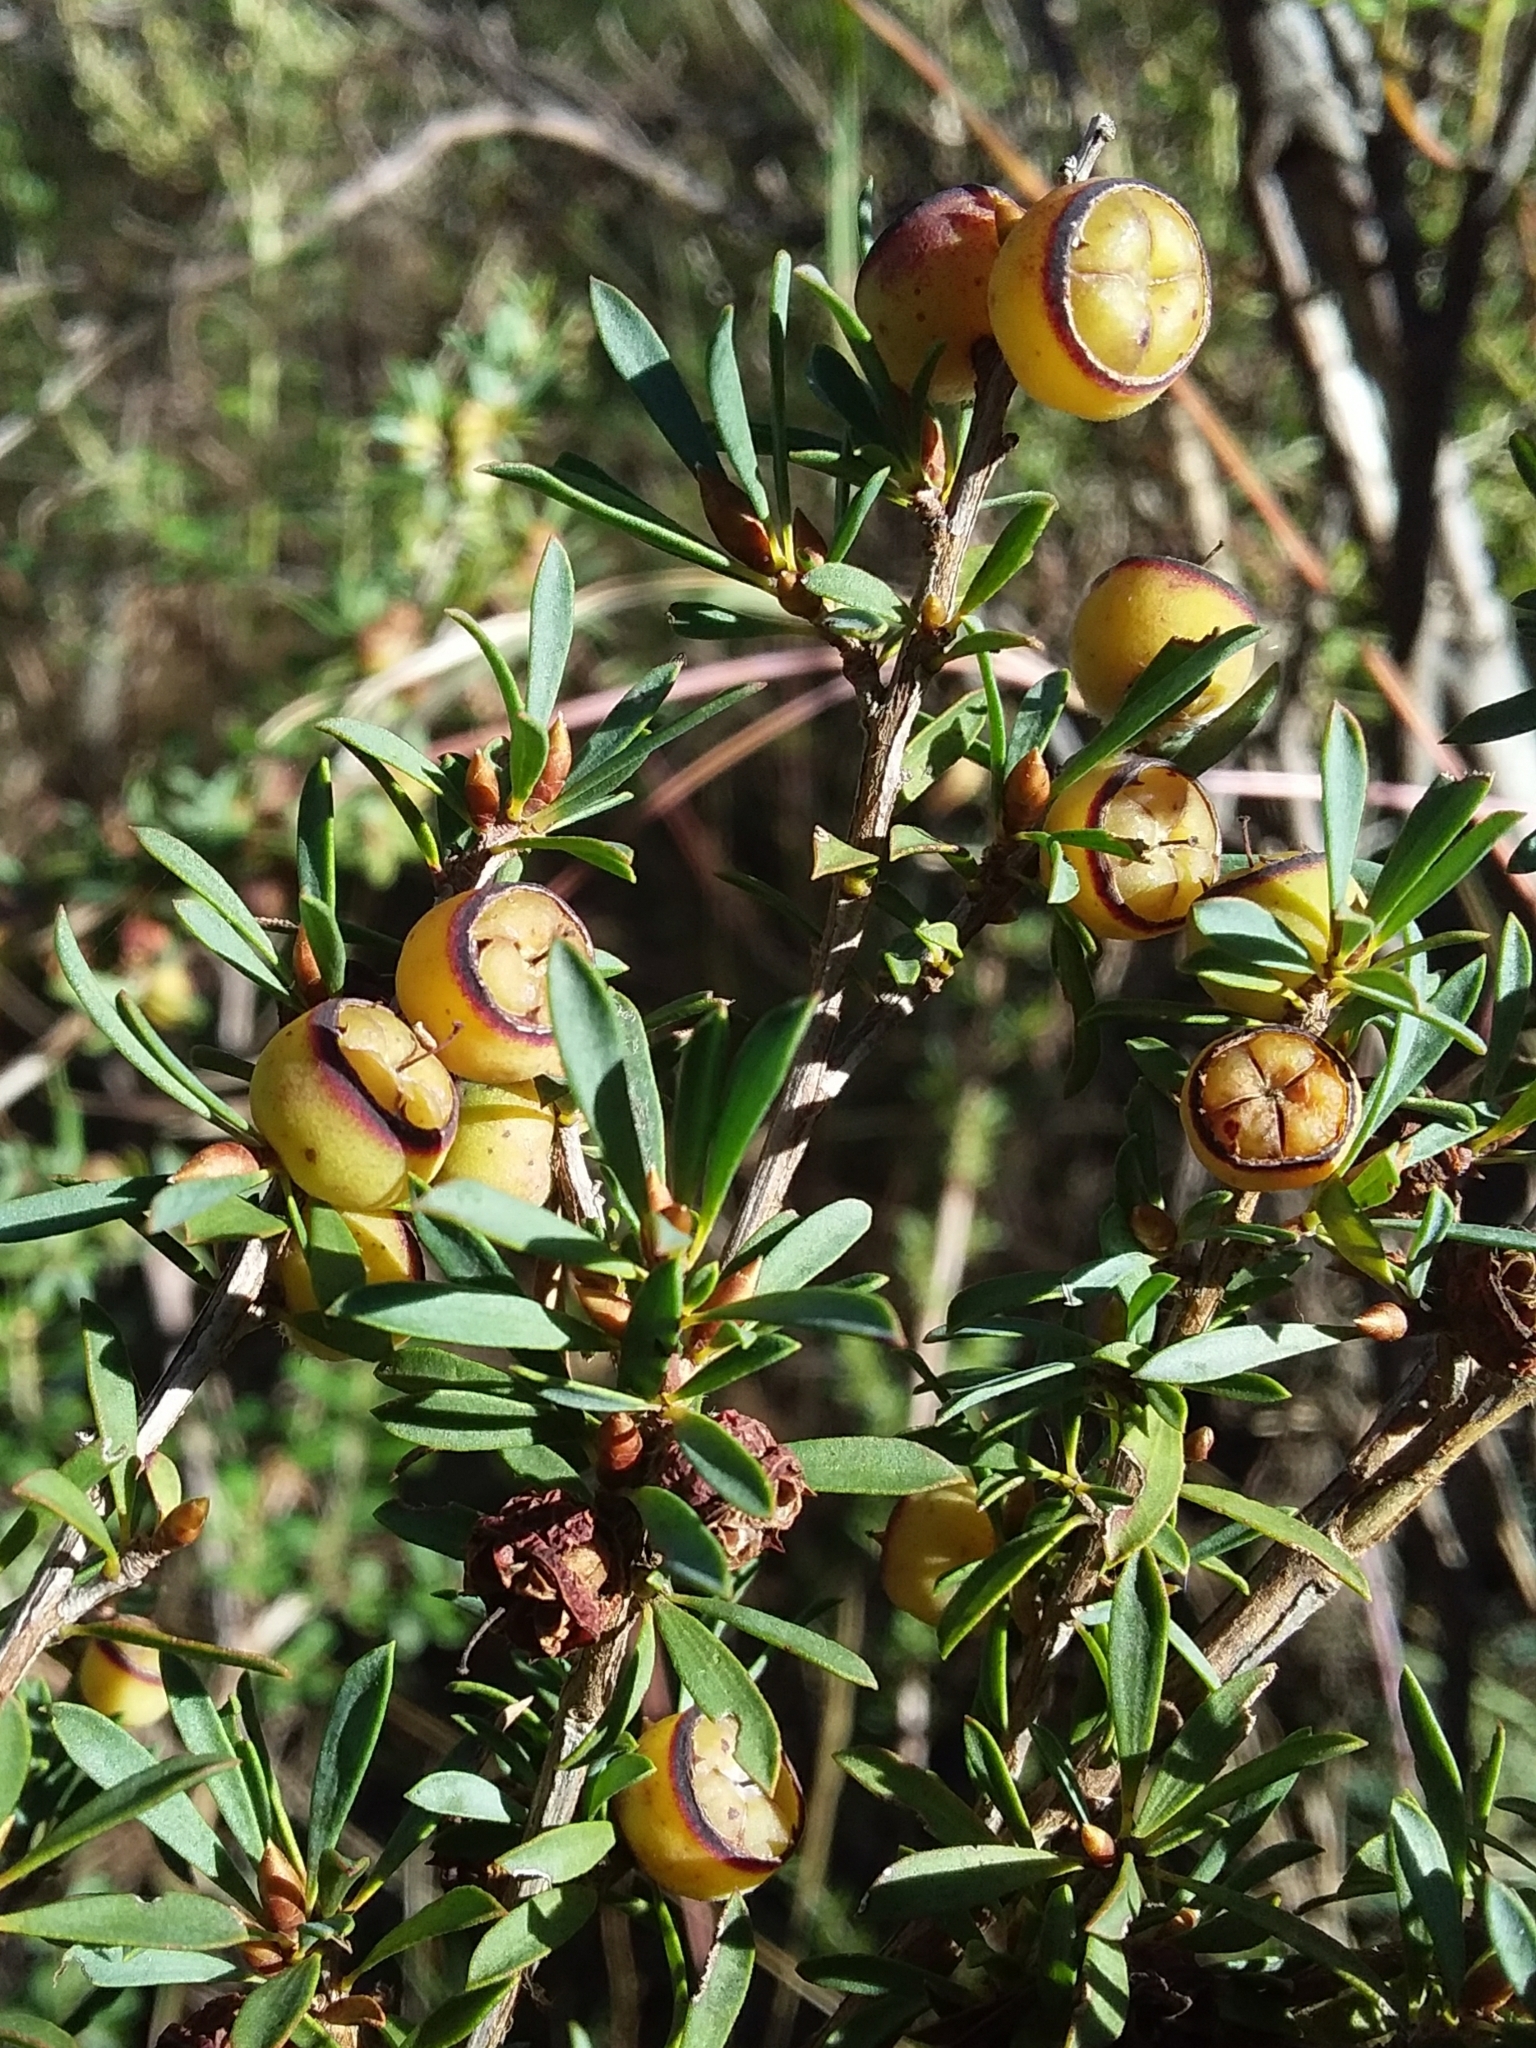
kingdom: Plantae
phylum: Tracheophyta
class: Magnoliopsida
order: Myrtales
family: Myrtaceae
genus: Leptospermum
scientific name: Leptospermum myrsinoides
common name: Heath teatree
